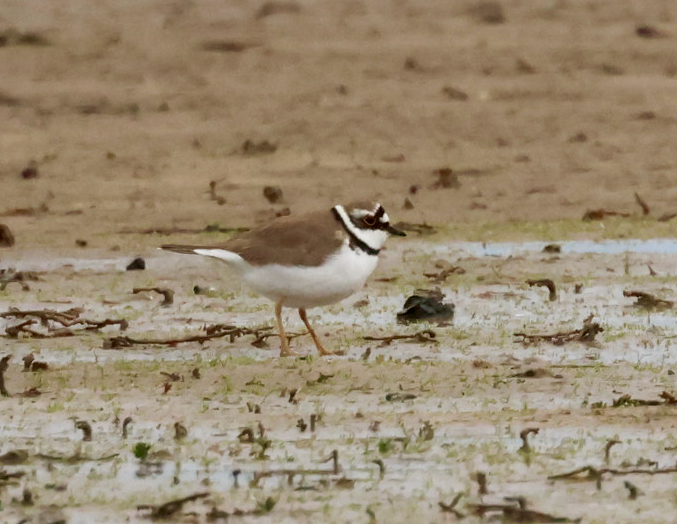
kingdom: Animalia
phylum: Chordata
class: Aves
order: Charadriiformes
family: Charadriidae
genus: Charadrius
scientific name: Charadrius dubius
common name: Little ringed plover
